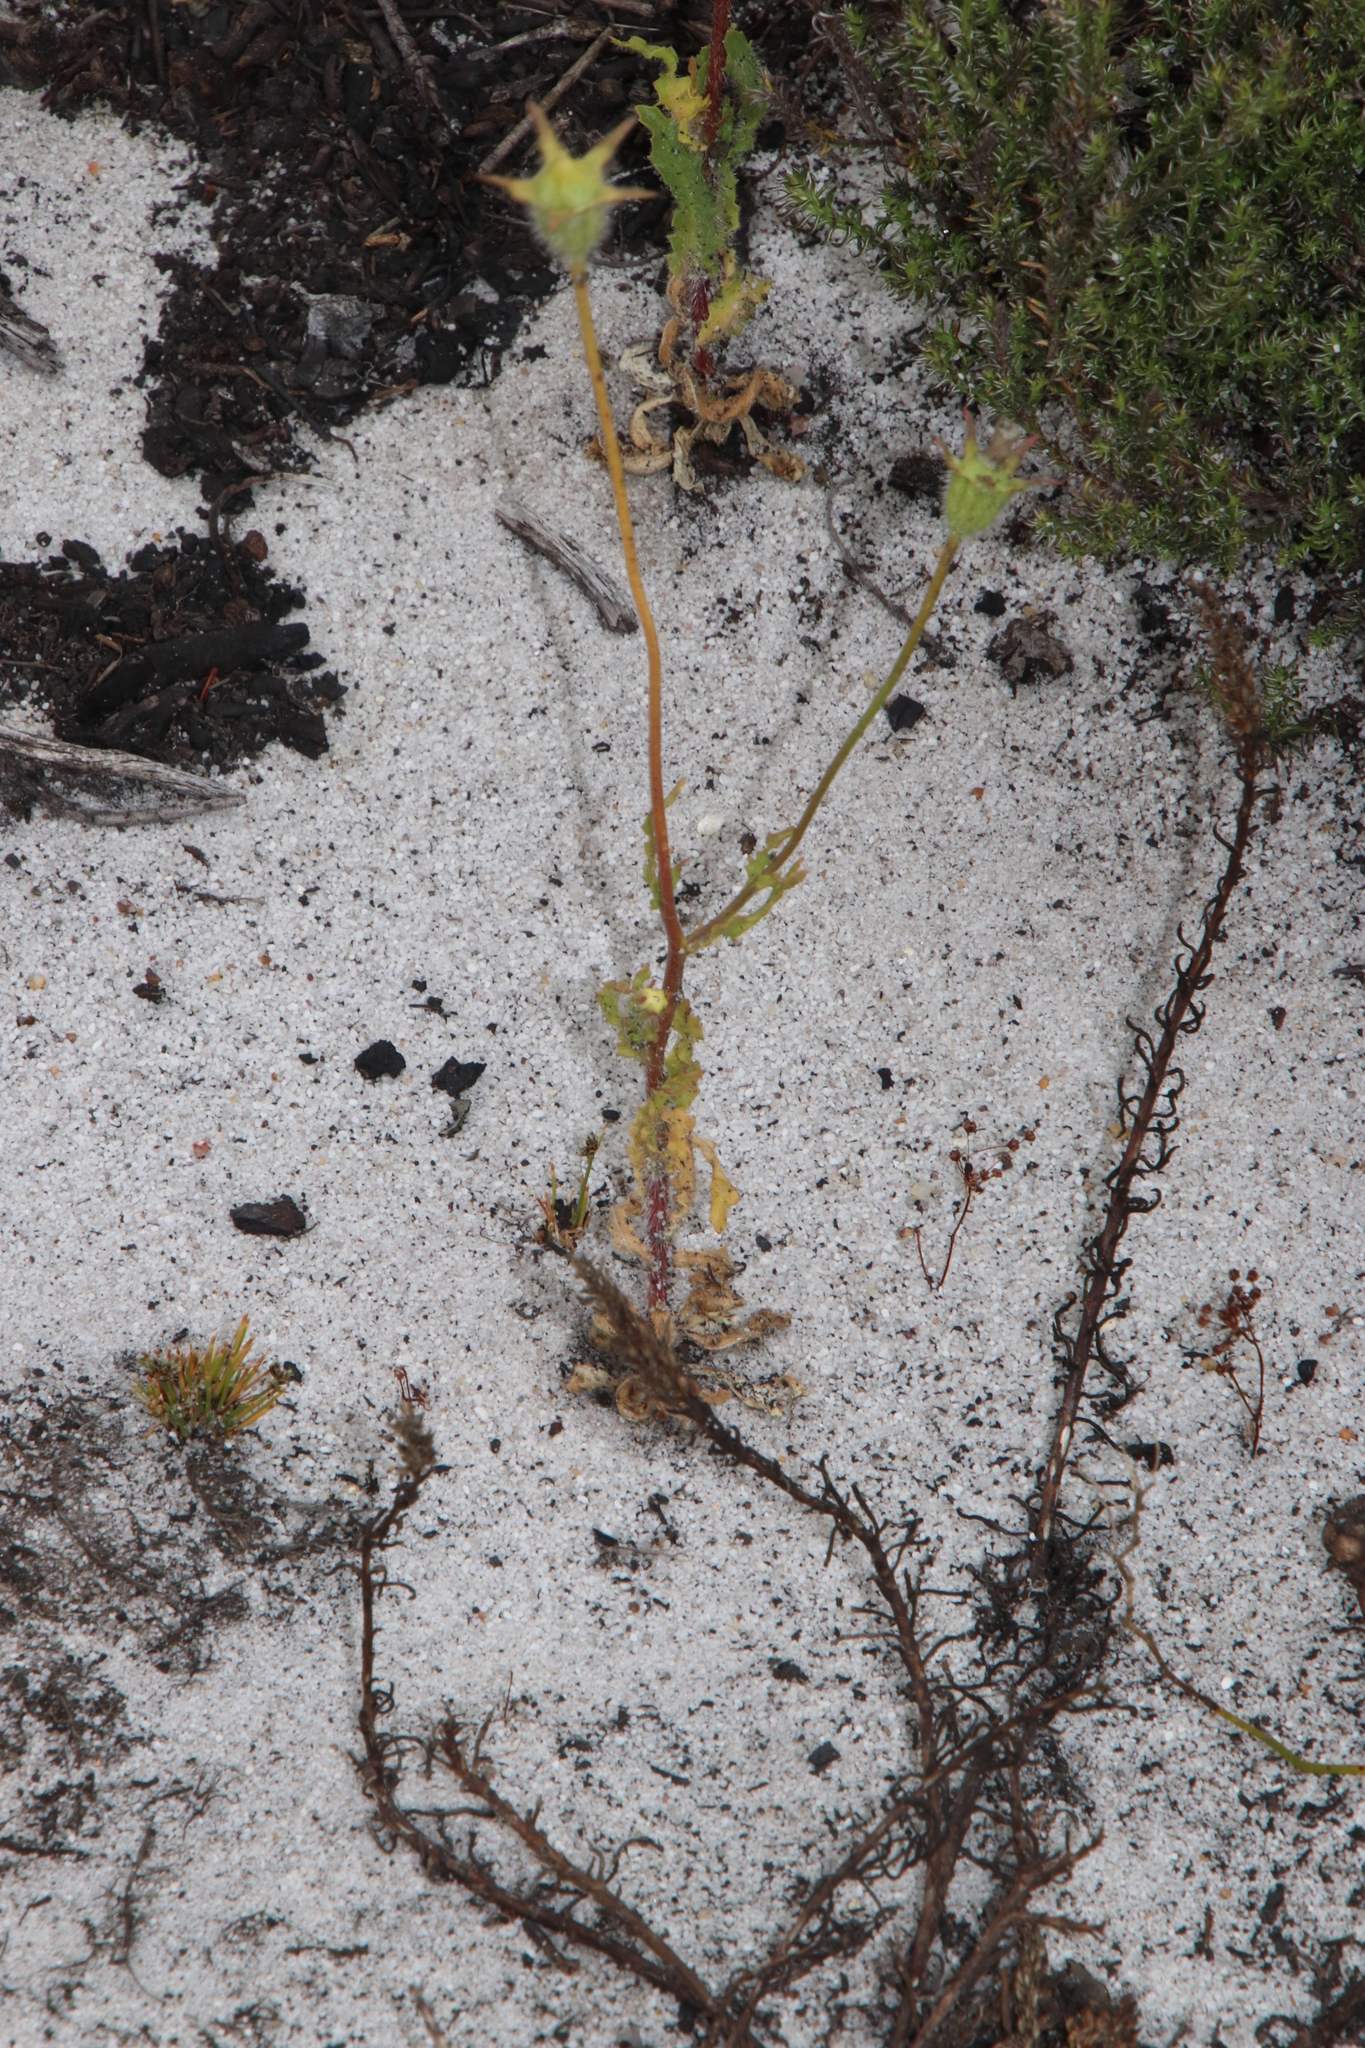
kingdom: Plantae
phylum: Tracheophyta
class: Magnoliopsida
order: Asterales
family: Campanulaceae
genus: Wahlenbergia
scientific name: Wahlenbergia capensis
